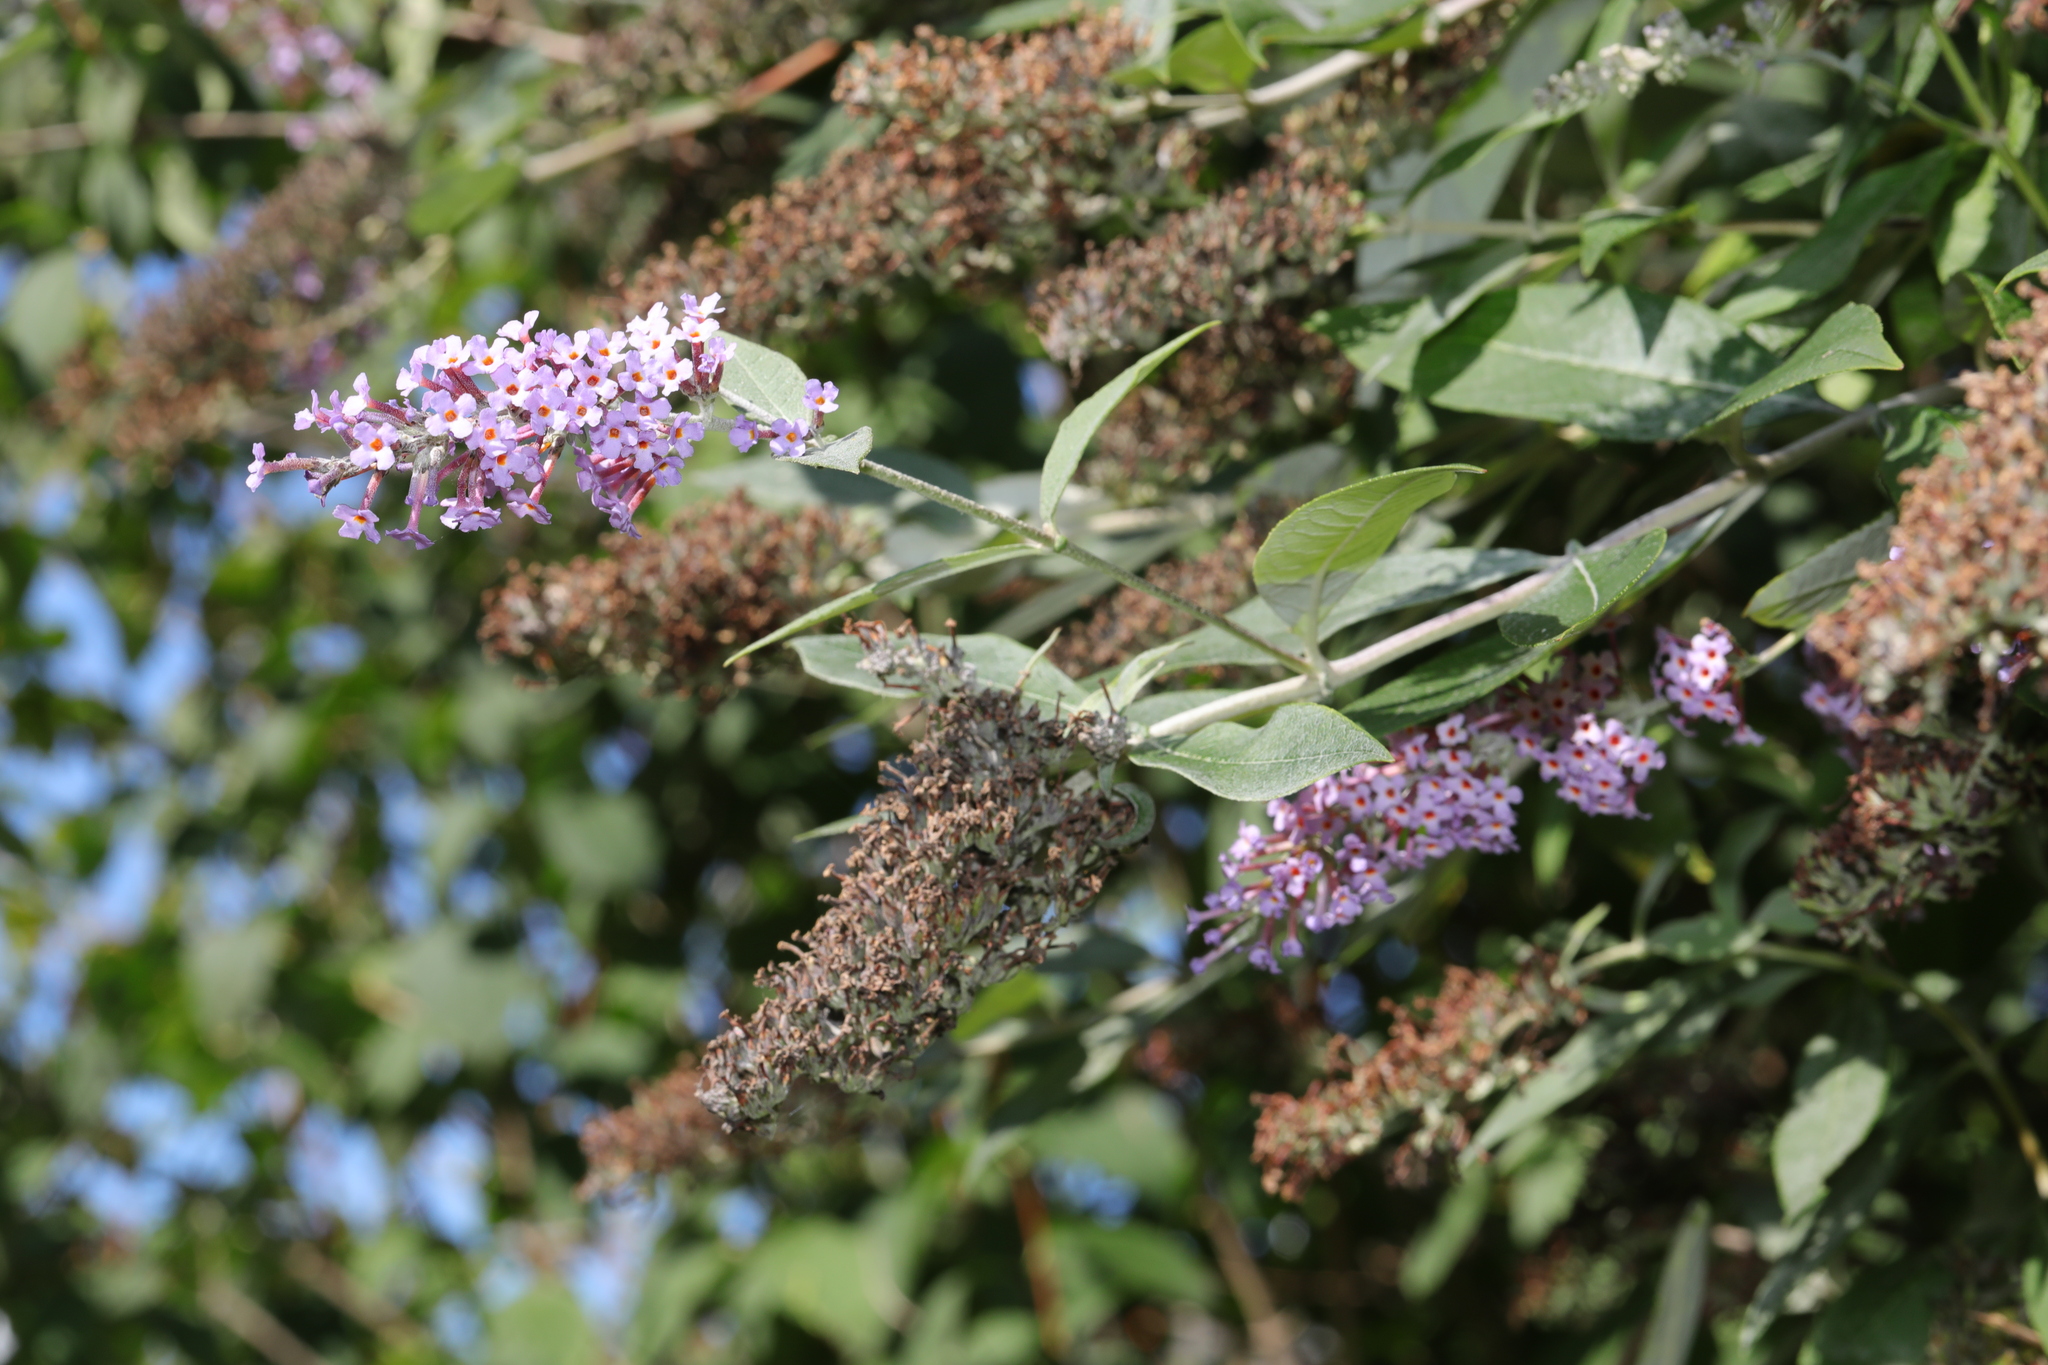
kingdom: Plantae
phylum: Tracheophyta
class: Magnoliopsida
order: Lamiales
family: Scrophulariaceae
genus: Buddleja
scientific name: Buddleja davidii
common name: Butterfly-bush
